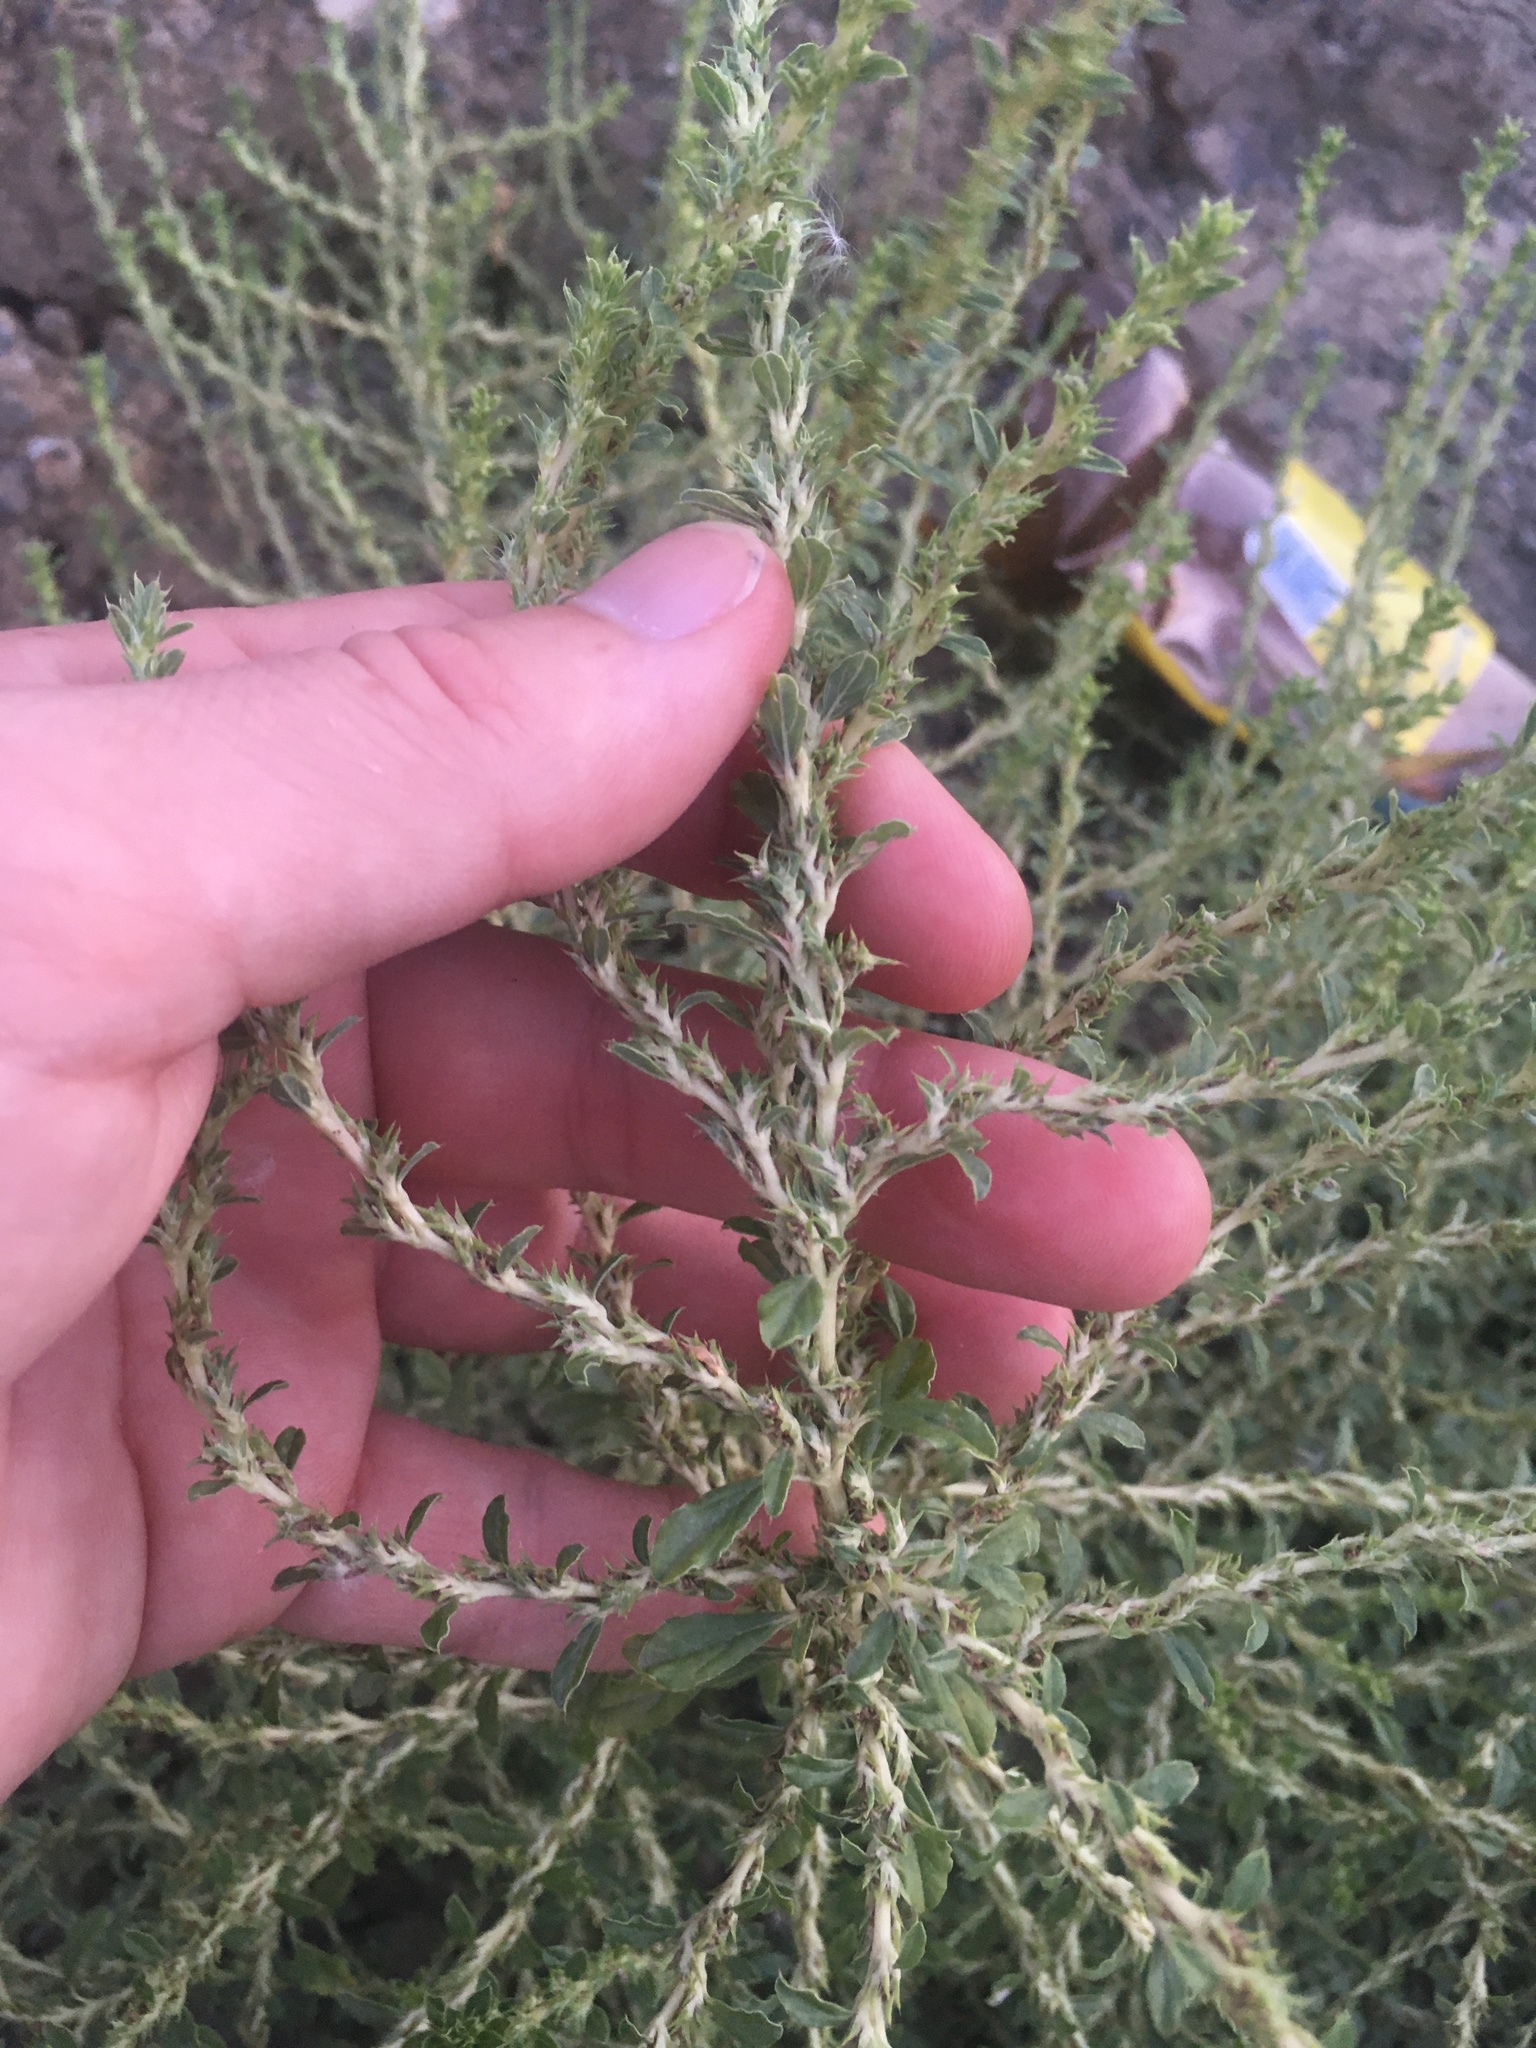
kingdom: Plantae
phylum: Tracheophyta
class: Magnoliopsida
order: Caryophyllales
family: Amaranthaceae
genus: Amaranthus
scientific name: Amaranthus albus
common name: White pigweed
